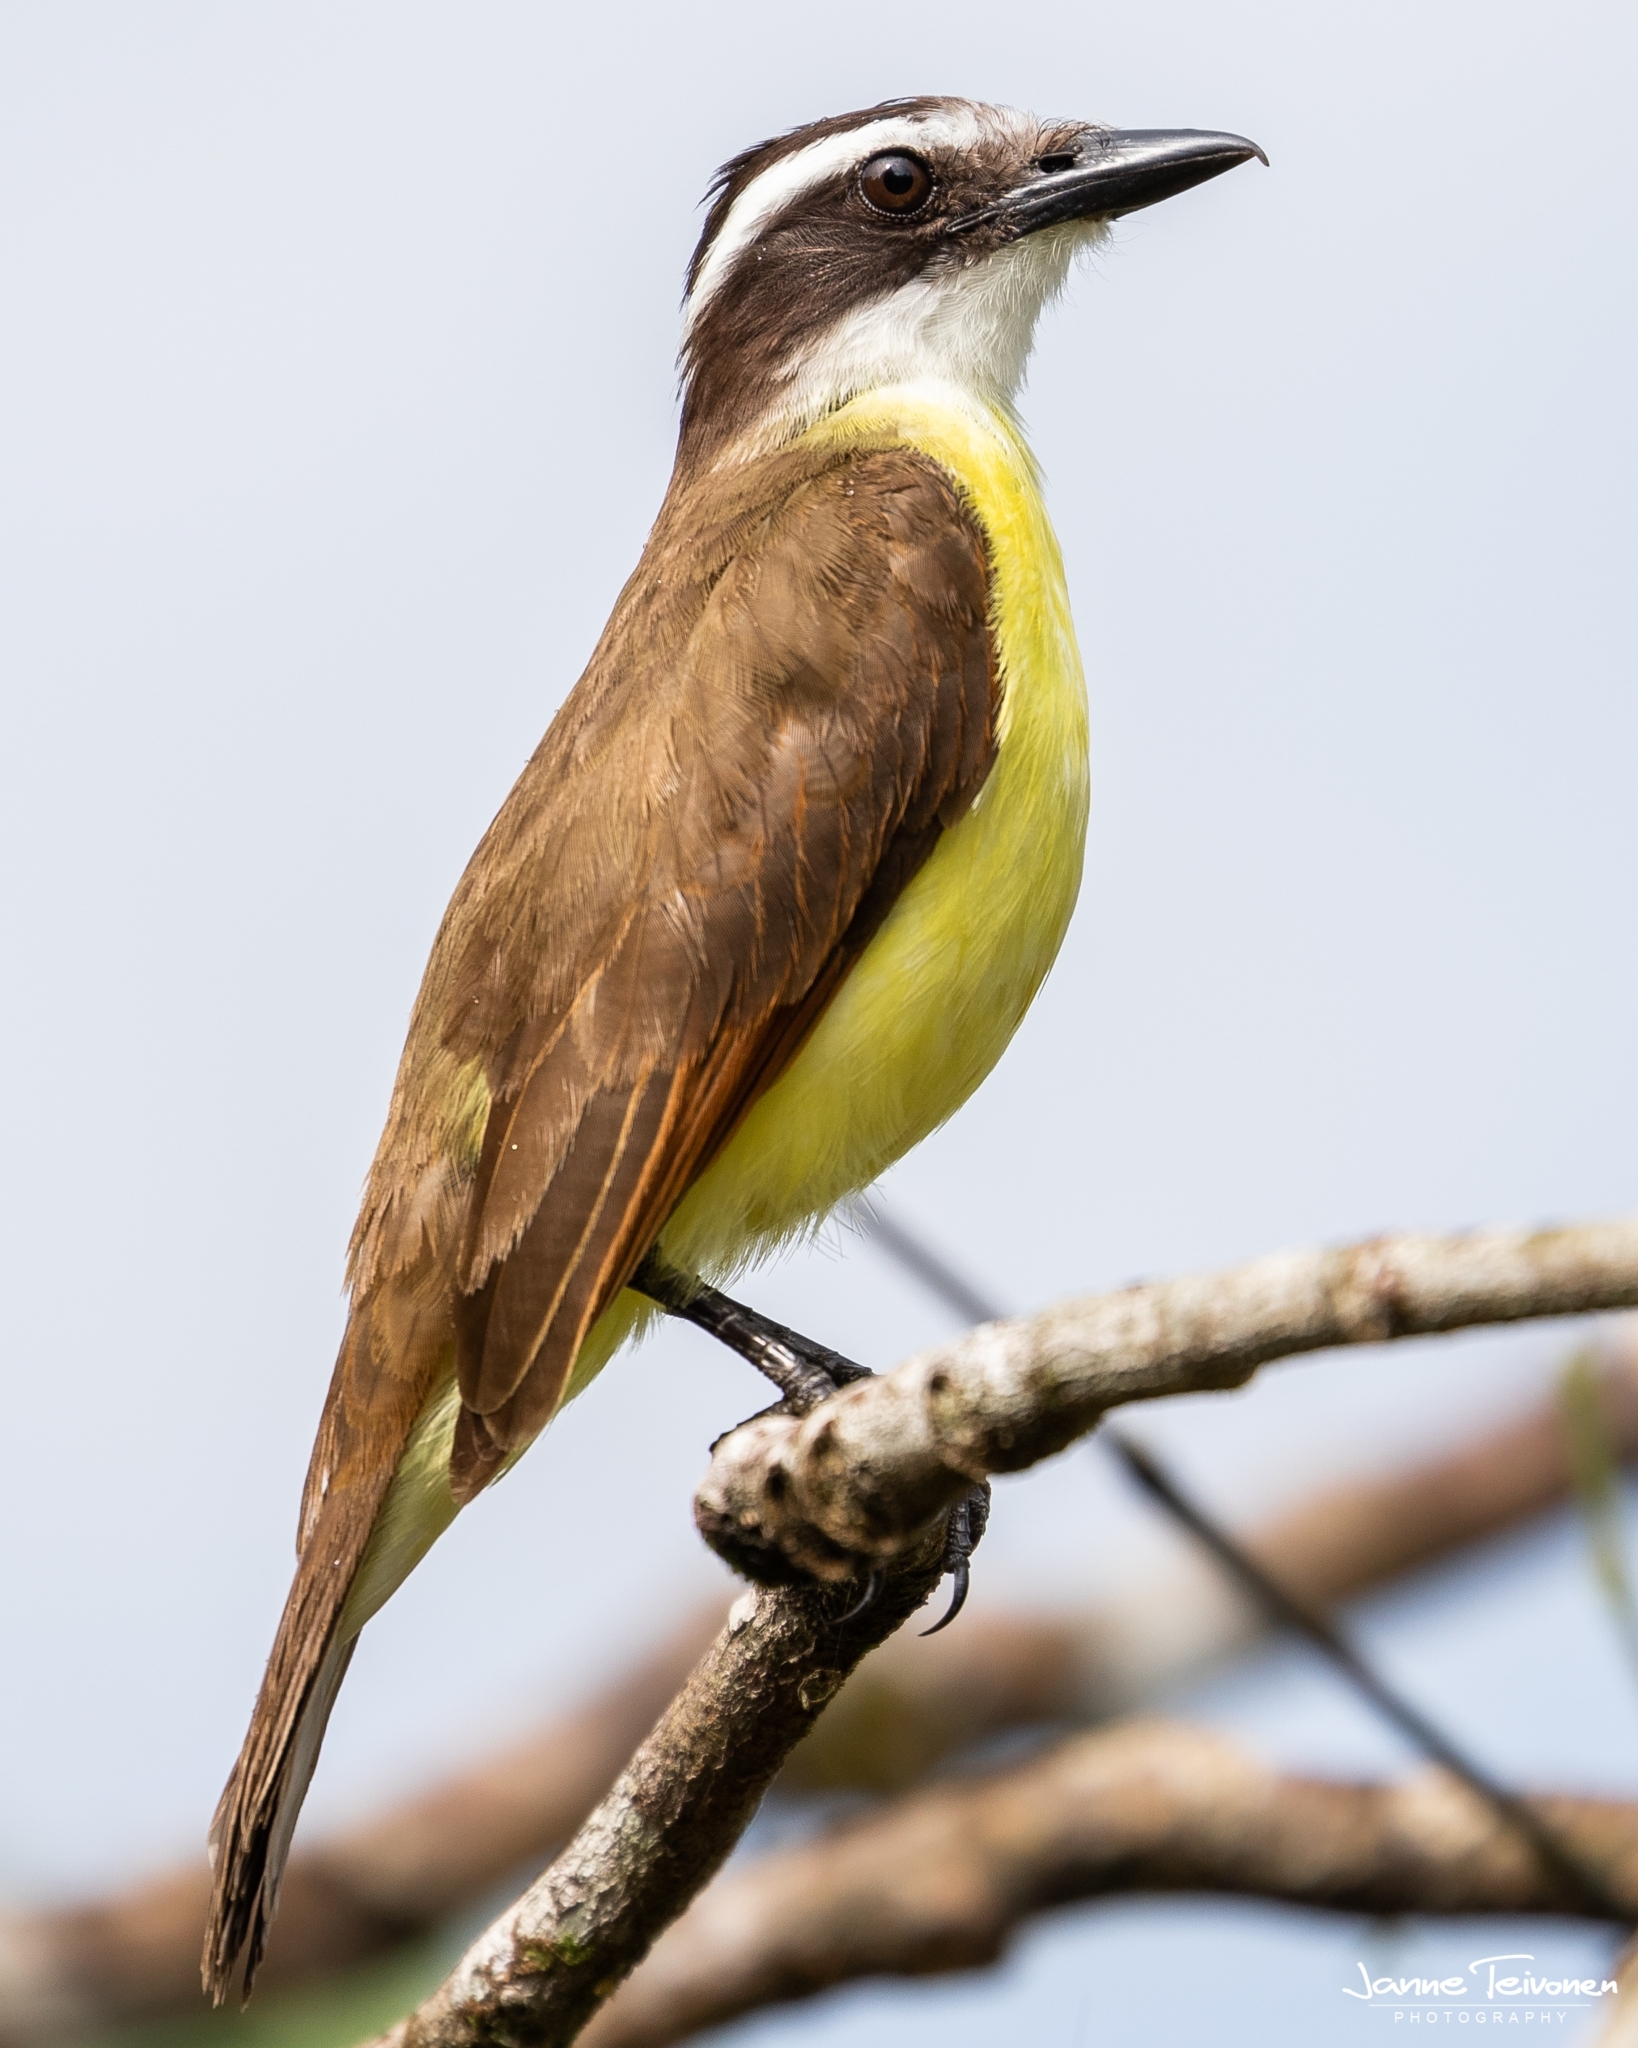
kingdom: Animalia
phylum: Chordata
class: Aves
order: Passeriformes
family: Tyrannidae
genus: Pitangus
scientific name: Pitangus sulphuratus
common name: Great kiskadee
